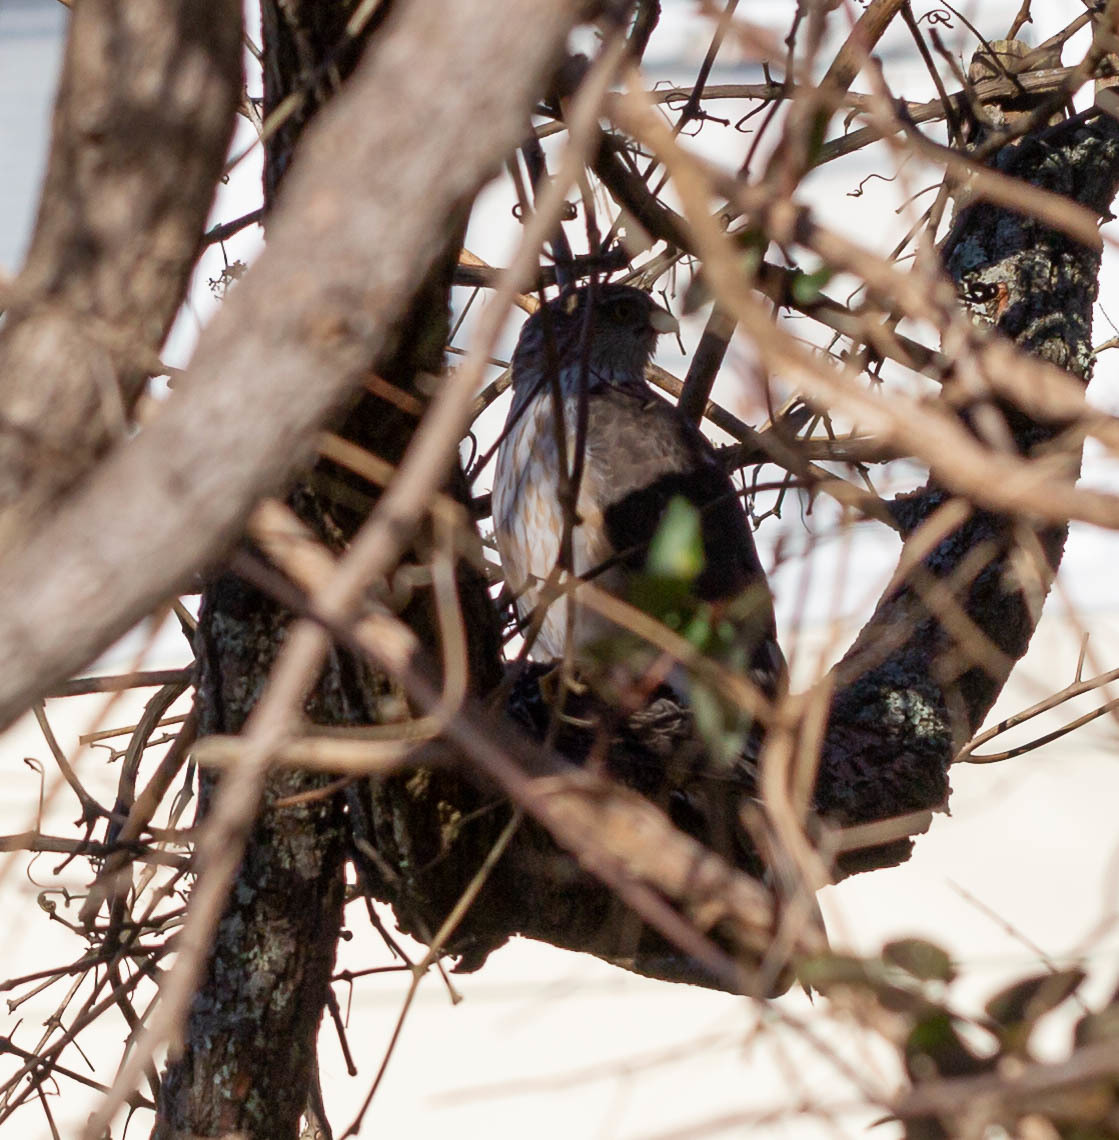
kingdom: Animalia
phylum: Chordata
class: Aves
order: Accipitriformes
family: Accipitridae
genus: Accipiter
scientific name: Accipiter striatus
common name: Sharp-shinned hawk
